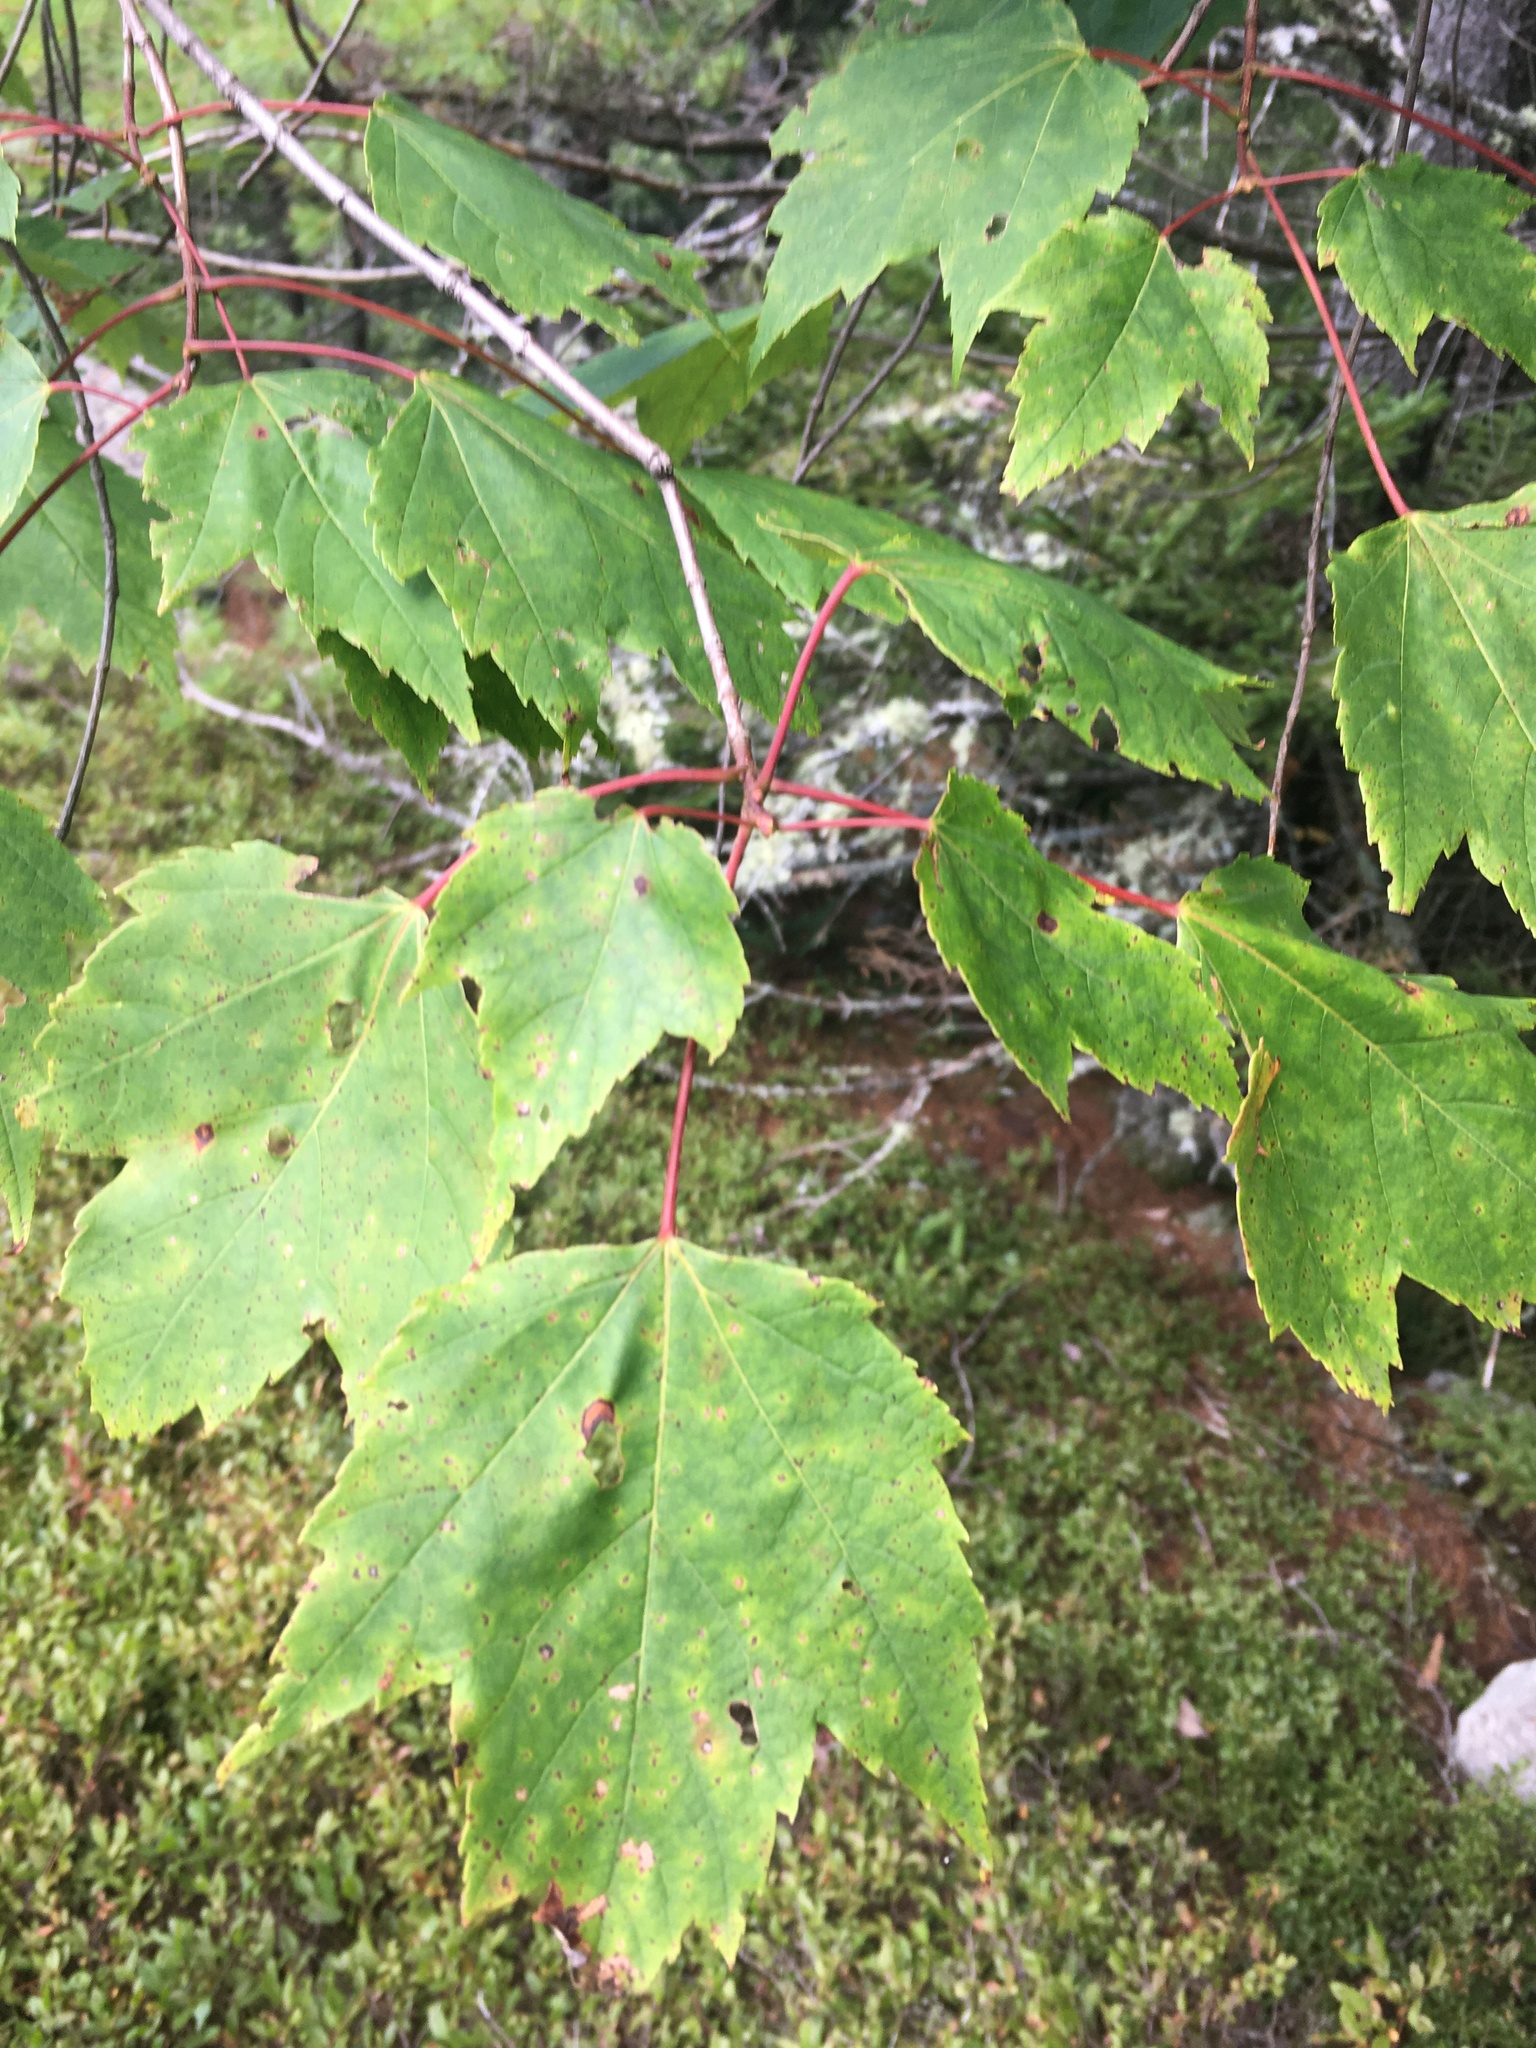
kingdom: Plantae
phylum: Tracheophyta
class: Magnoliopsida
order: Sapindales
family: Sapindaceae
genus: Acer
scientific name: Acer rubrum
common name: Red maple
